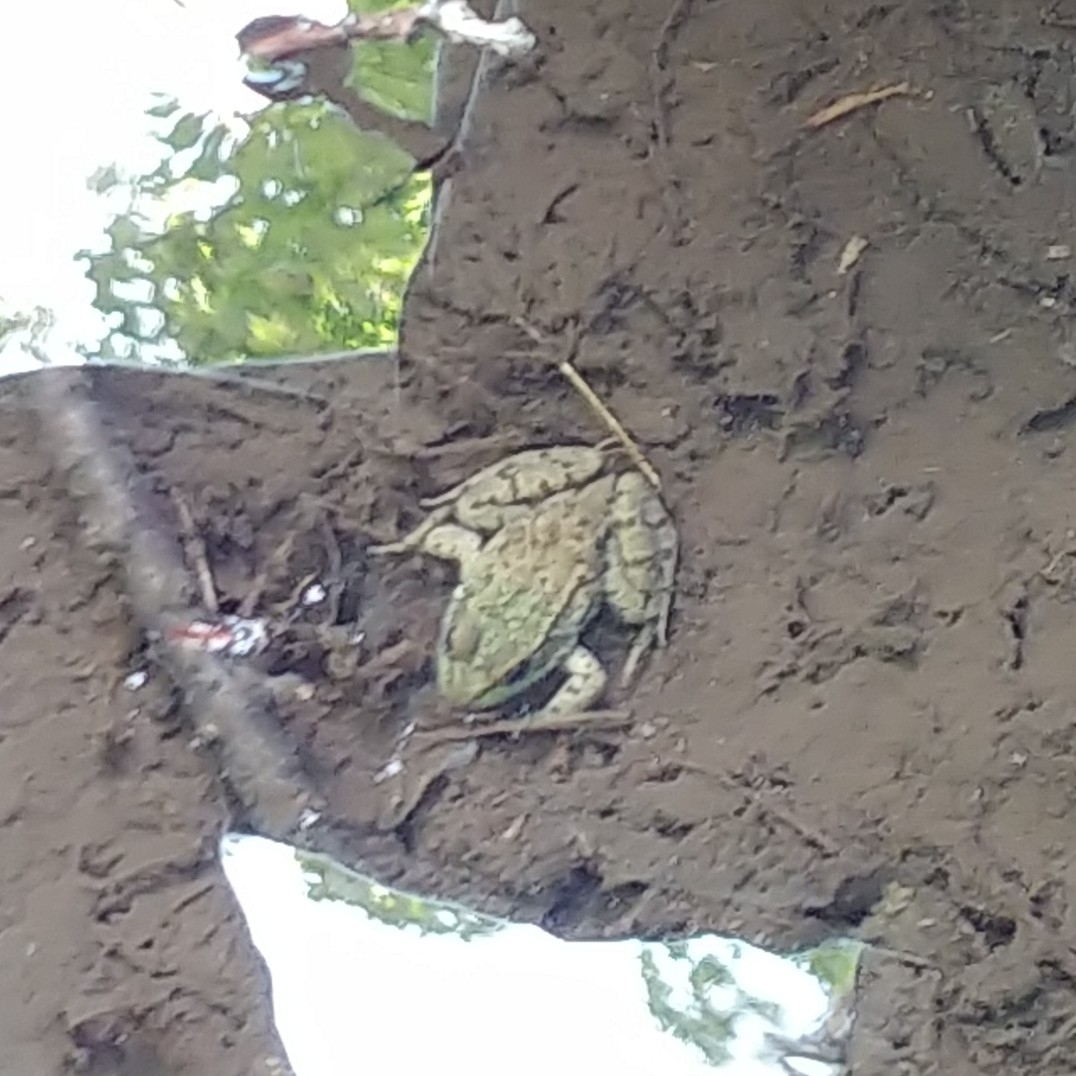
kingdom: Animalia
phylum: Chordata
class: Amphibia
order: Anura
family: Ranidae
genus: Lithobates
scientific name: Lithobates clamitans
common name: Green frog
